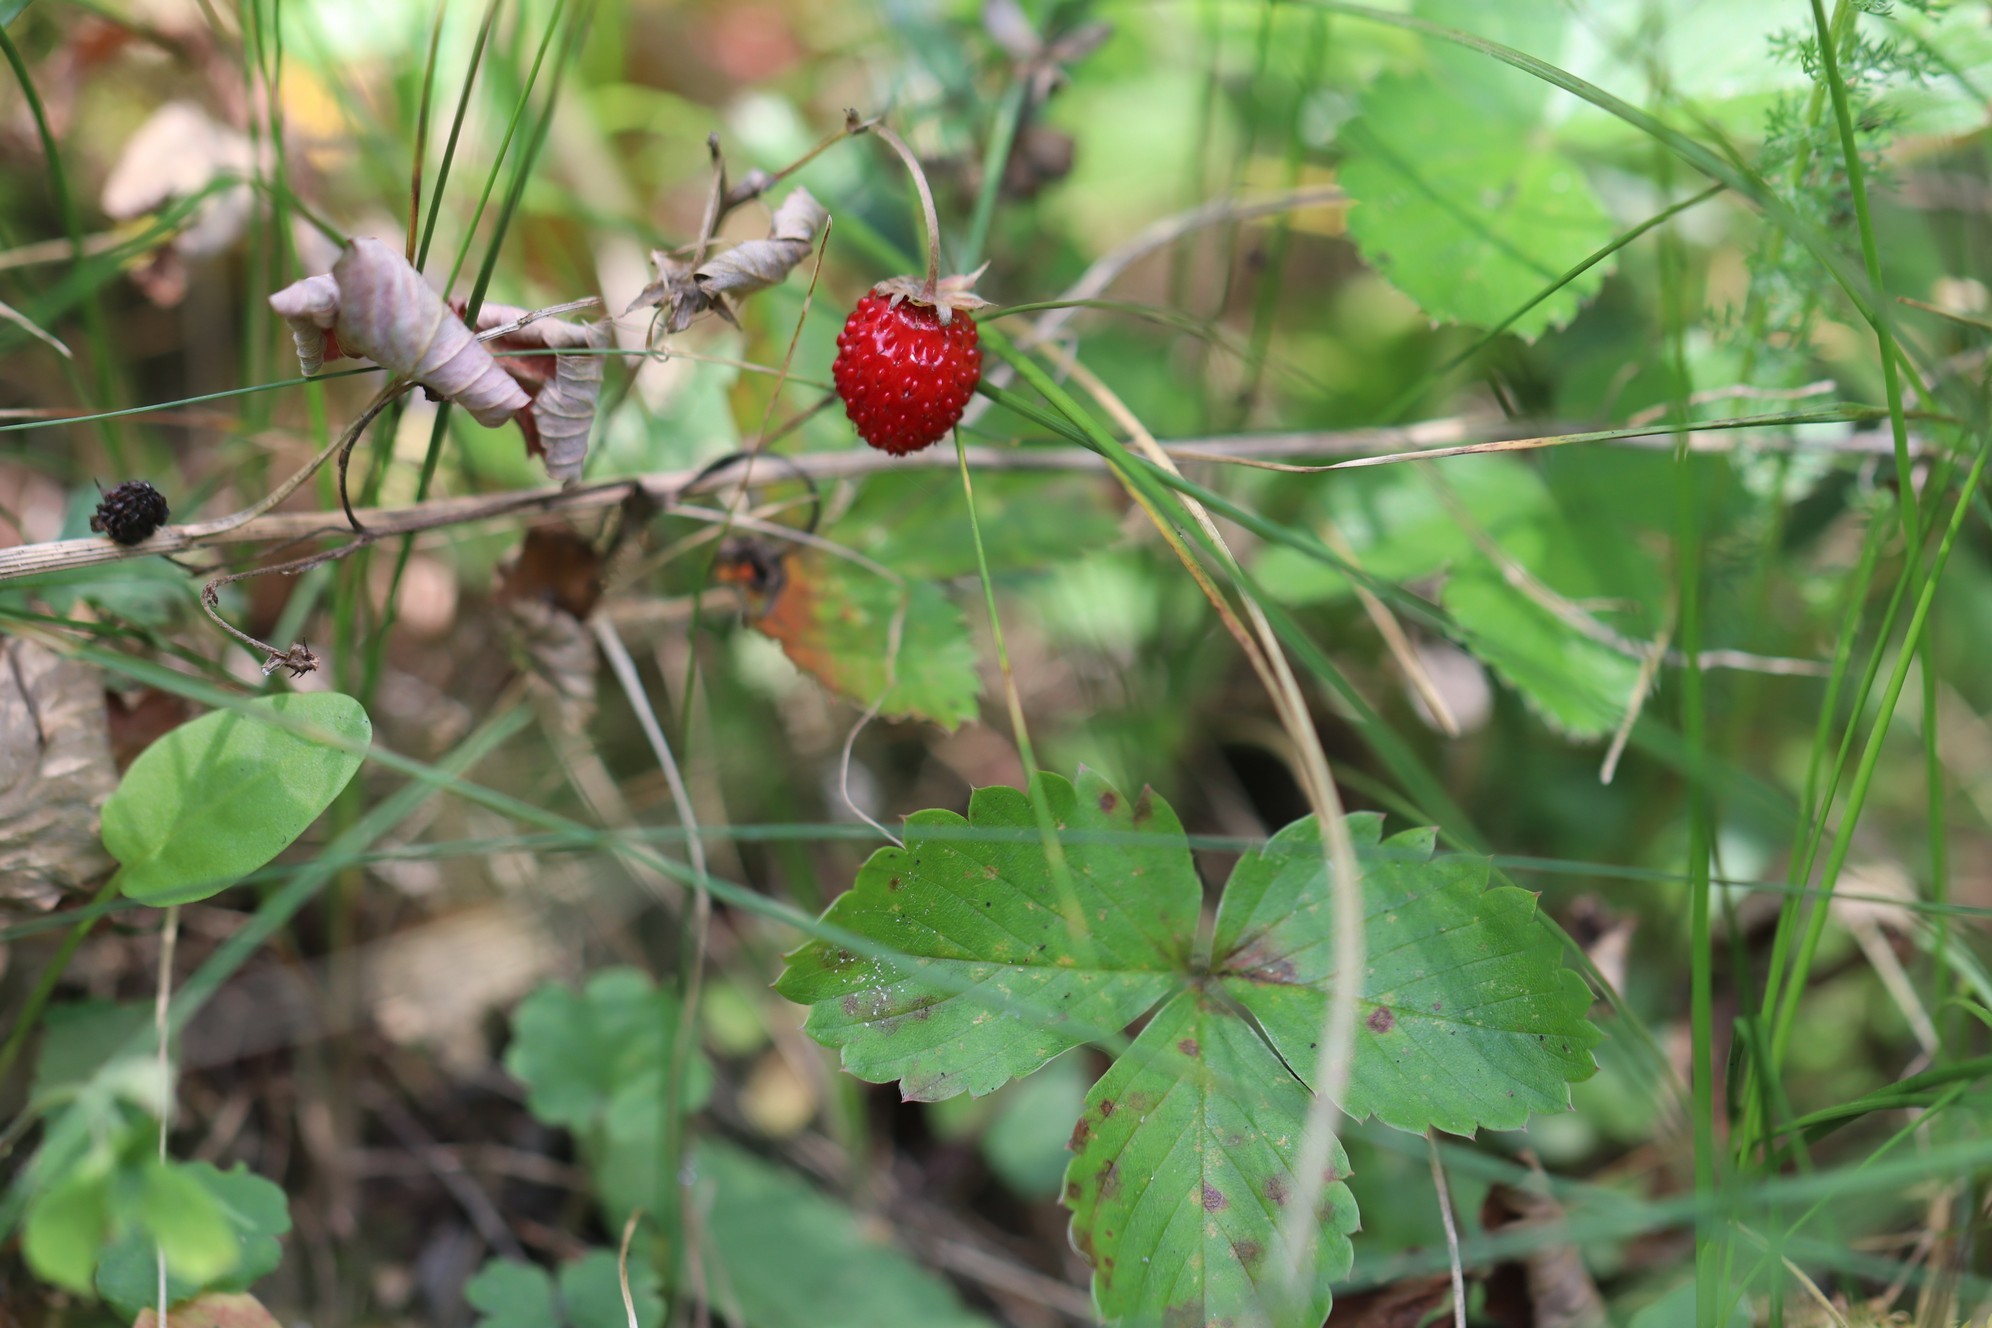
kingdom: Plantae
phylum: Tracheophyta
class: Magnoliopsida
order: Rosales
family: Rosaceae
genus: Fragaria
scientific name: Fragaria vesca
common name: Wild strawberry
